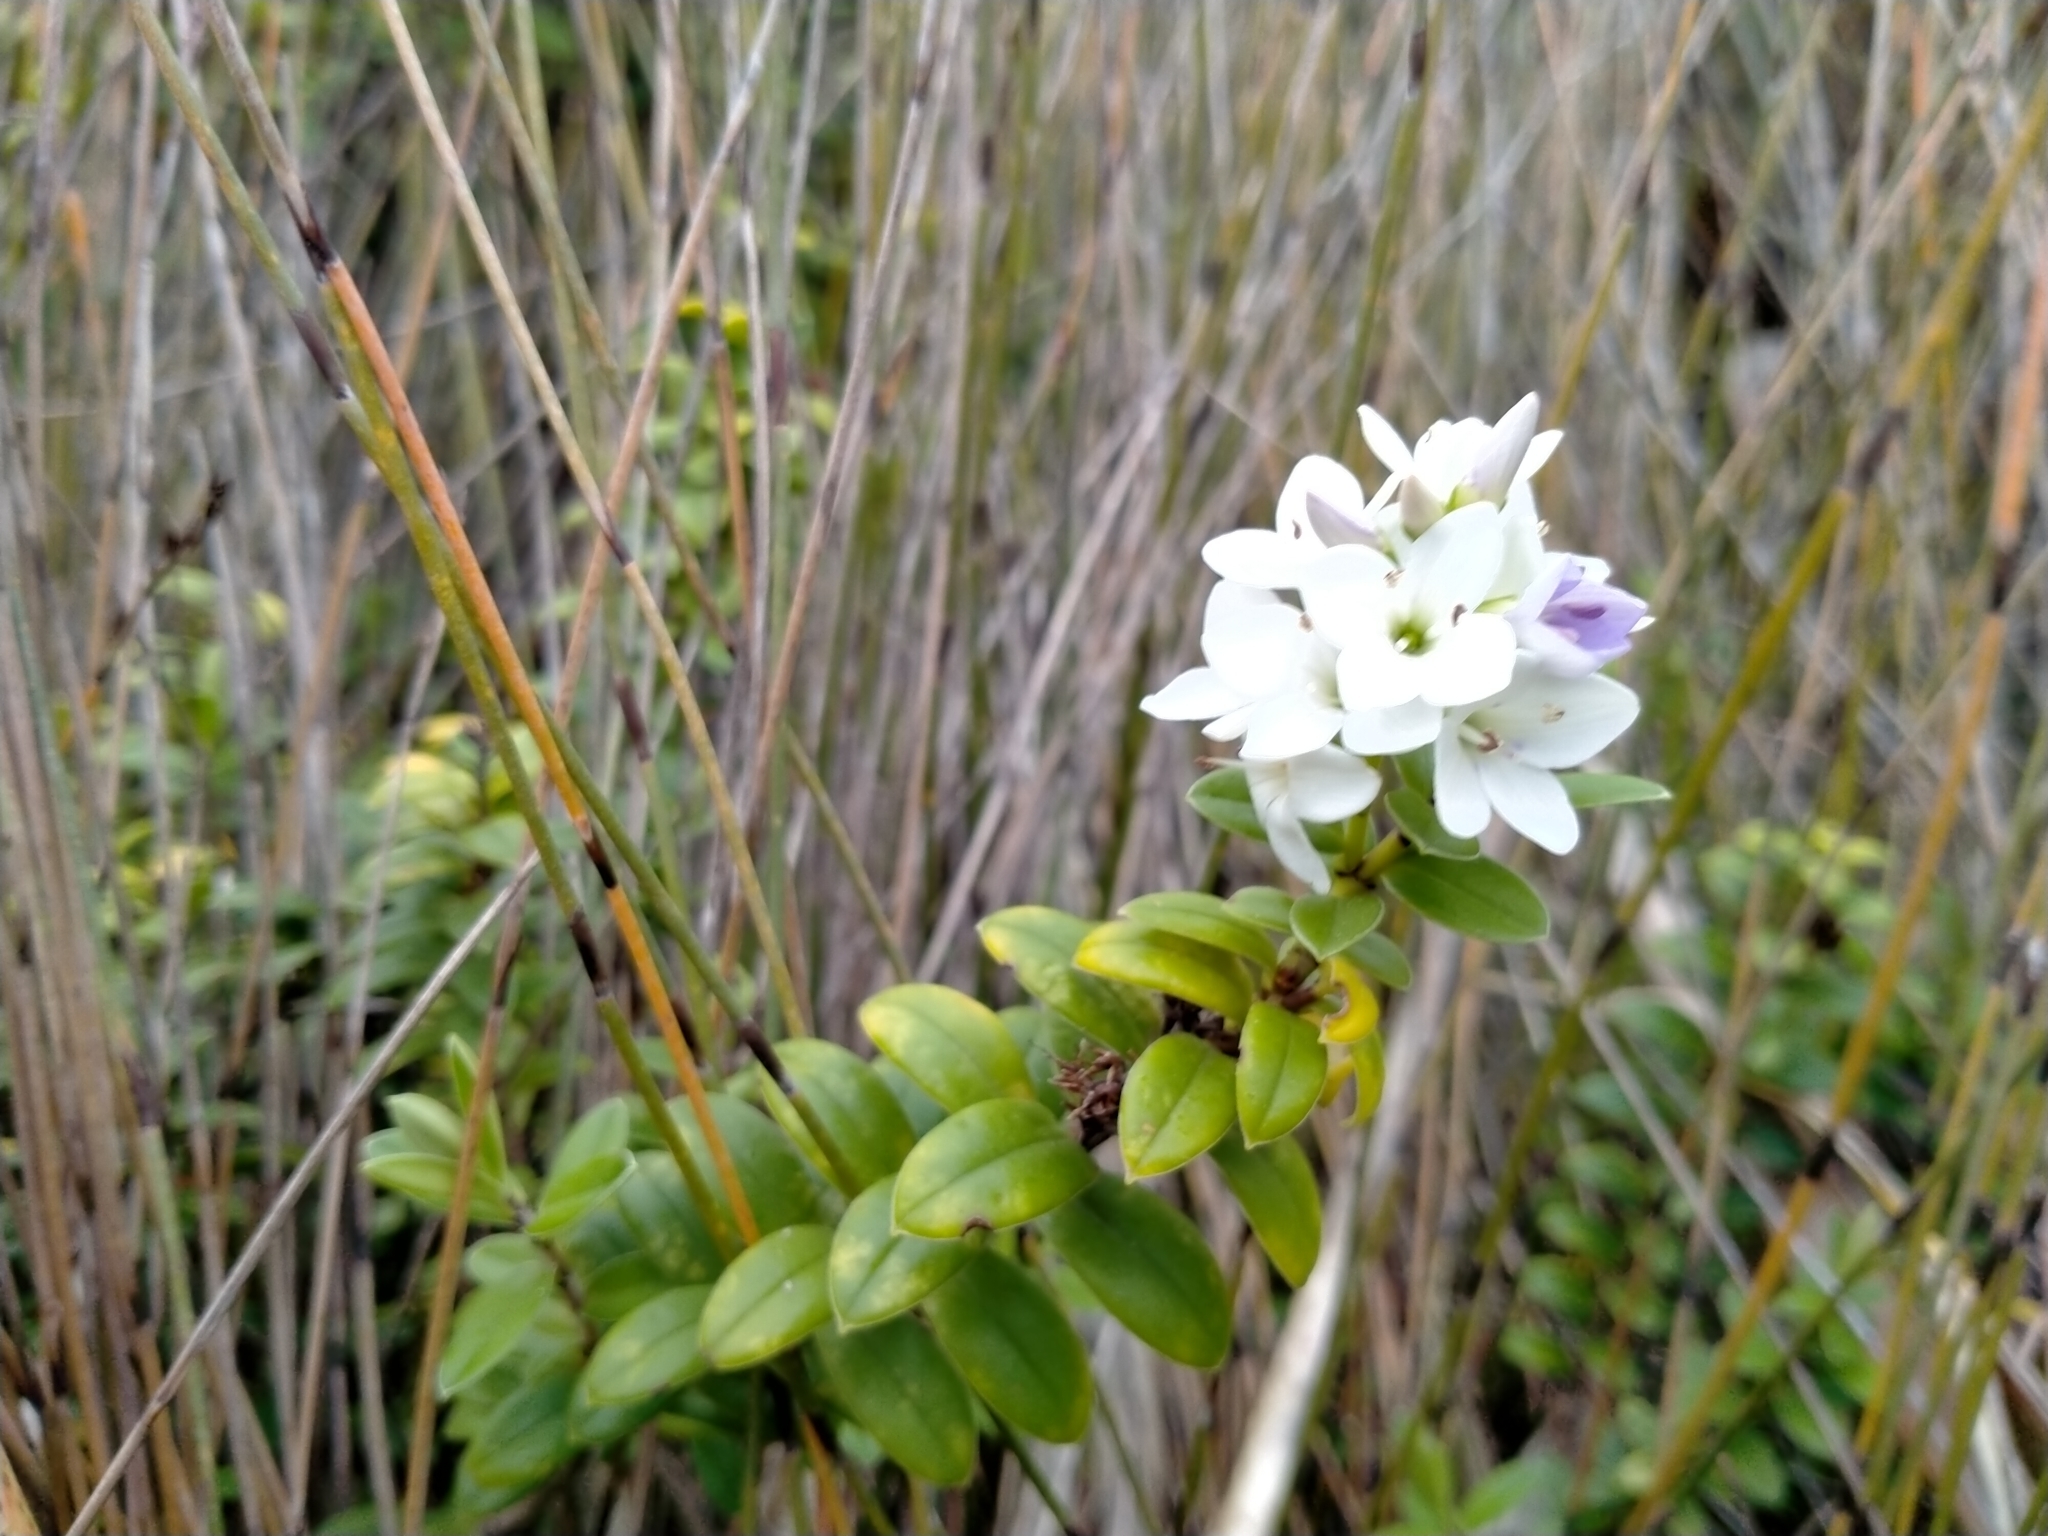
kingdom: Plantae
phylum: Tracheophyta
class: Magnoliopsida
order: Lamiales
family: Plantaginaceae
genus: Veronica
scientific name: Veronica elliptica
